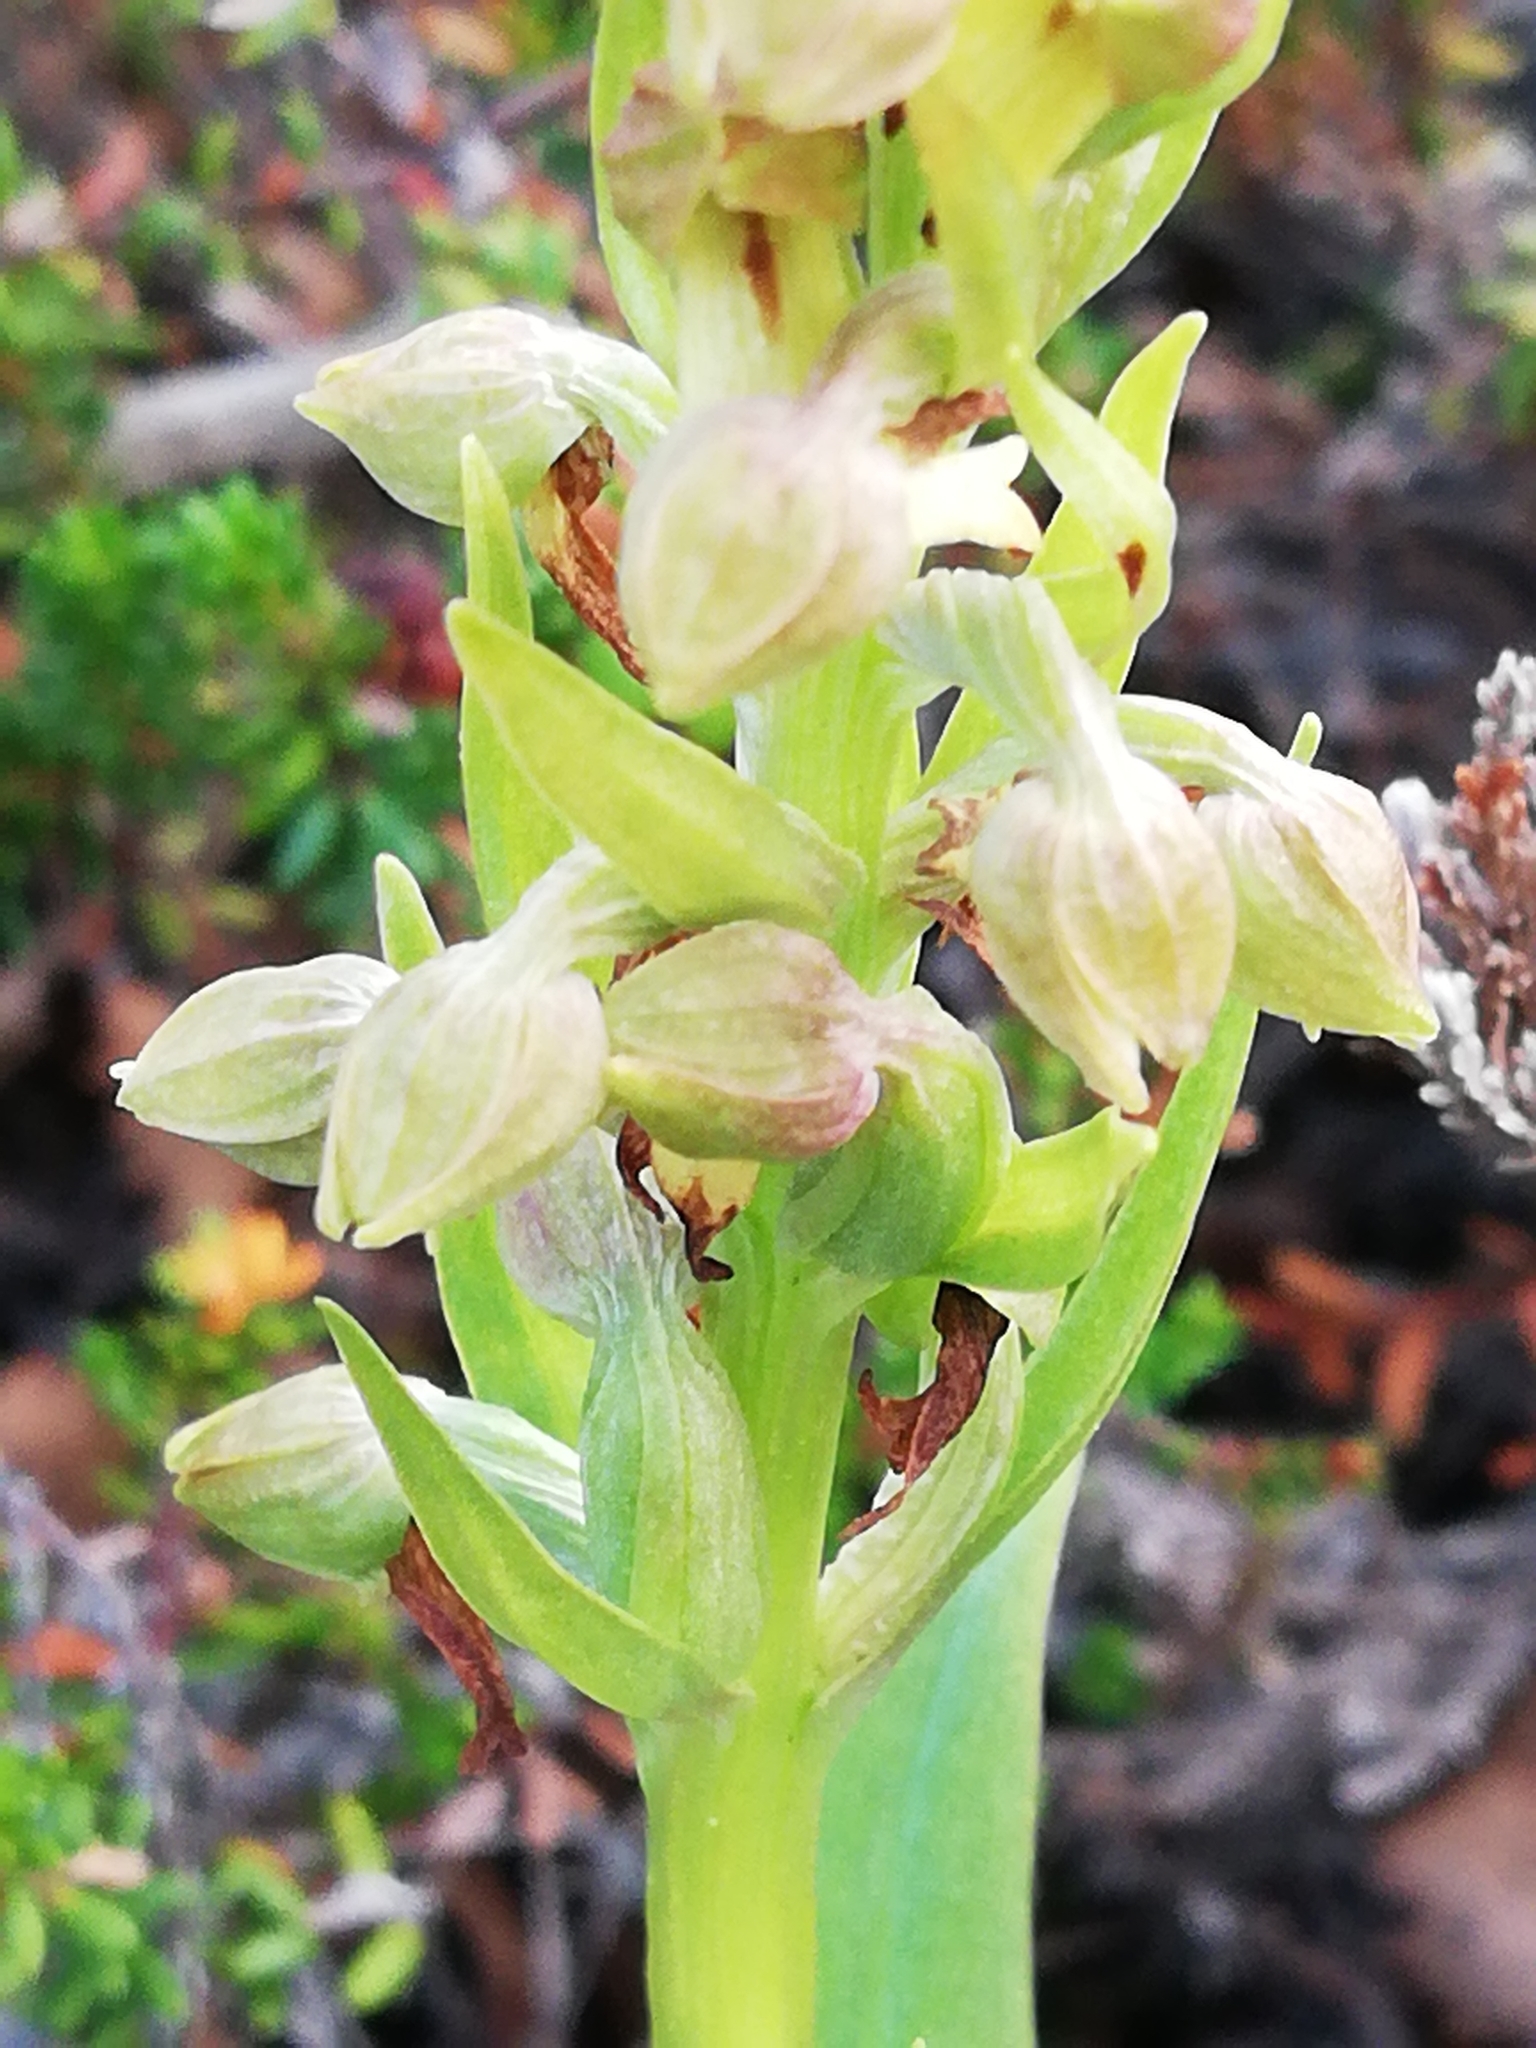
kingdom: Plantae
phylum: Tracheophyta
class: Liliopsida
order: Asparagales
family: Orchidaceae
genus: Dactylorhiza
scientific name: Dactylorhiza viridis
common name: Longbract frog orchid
